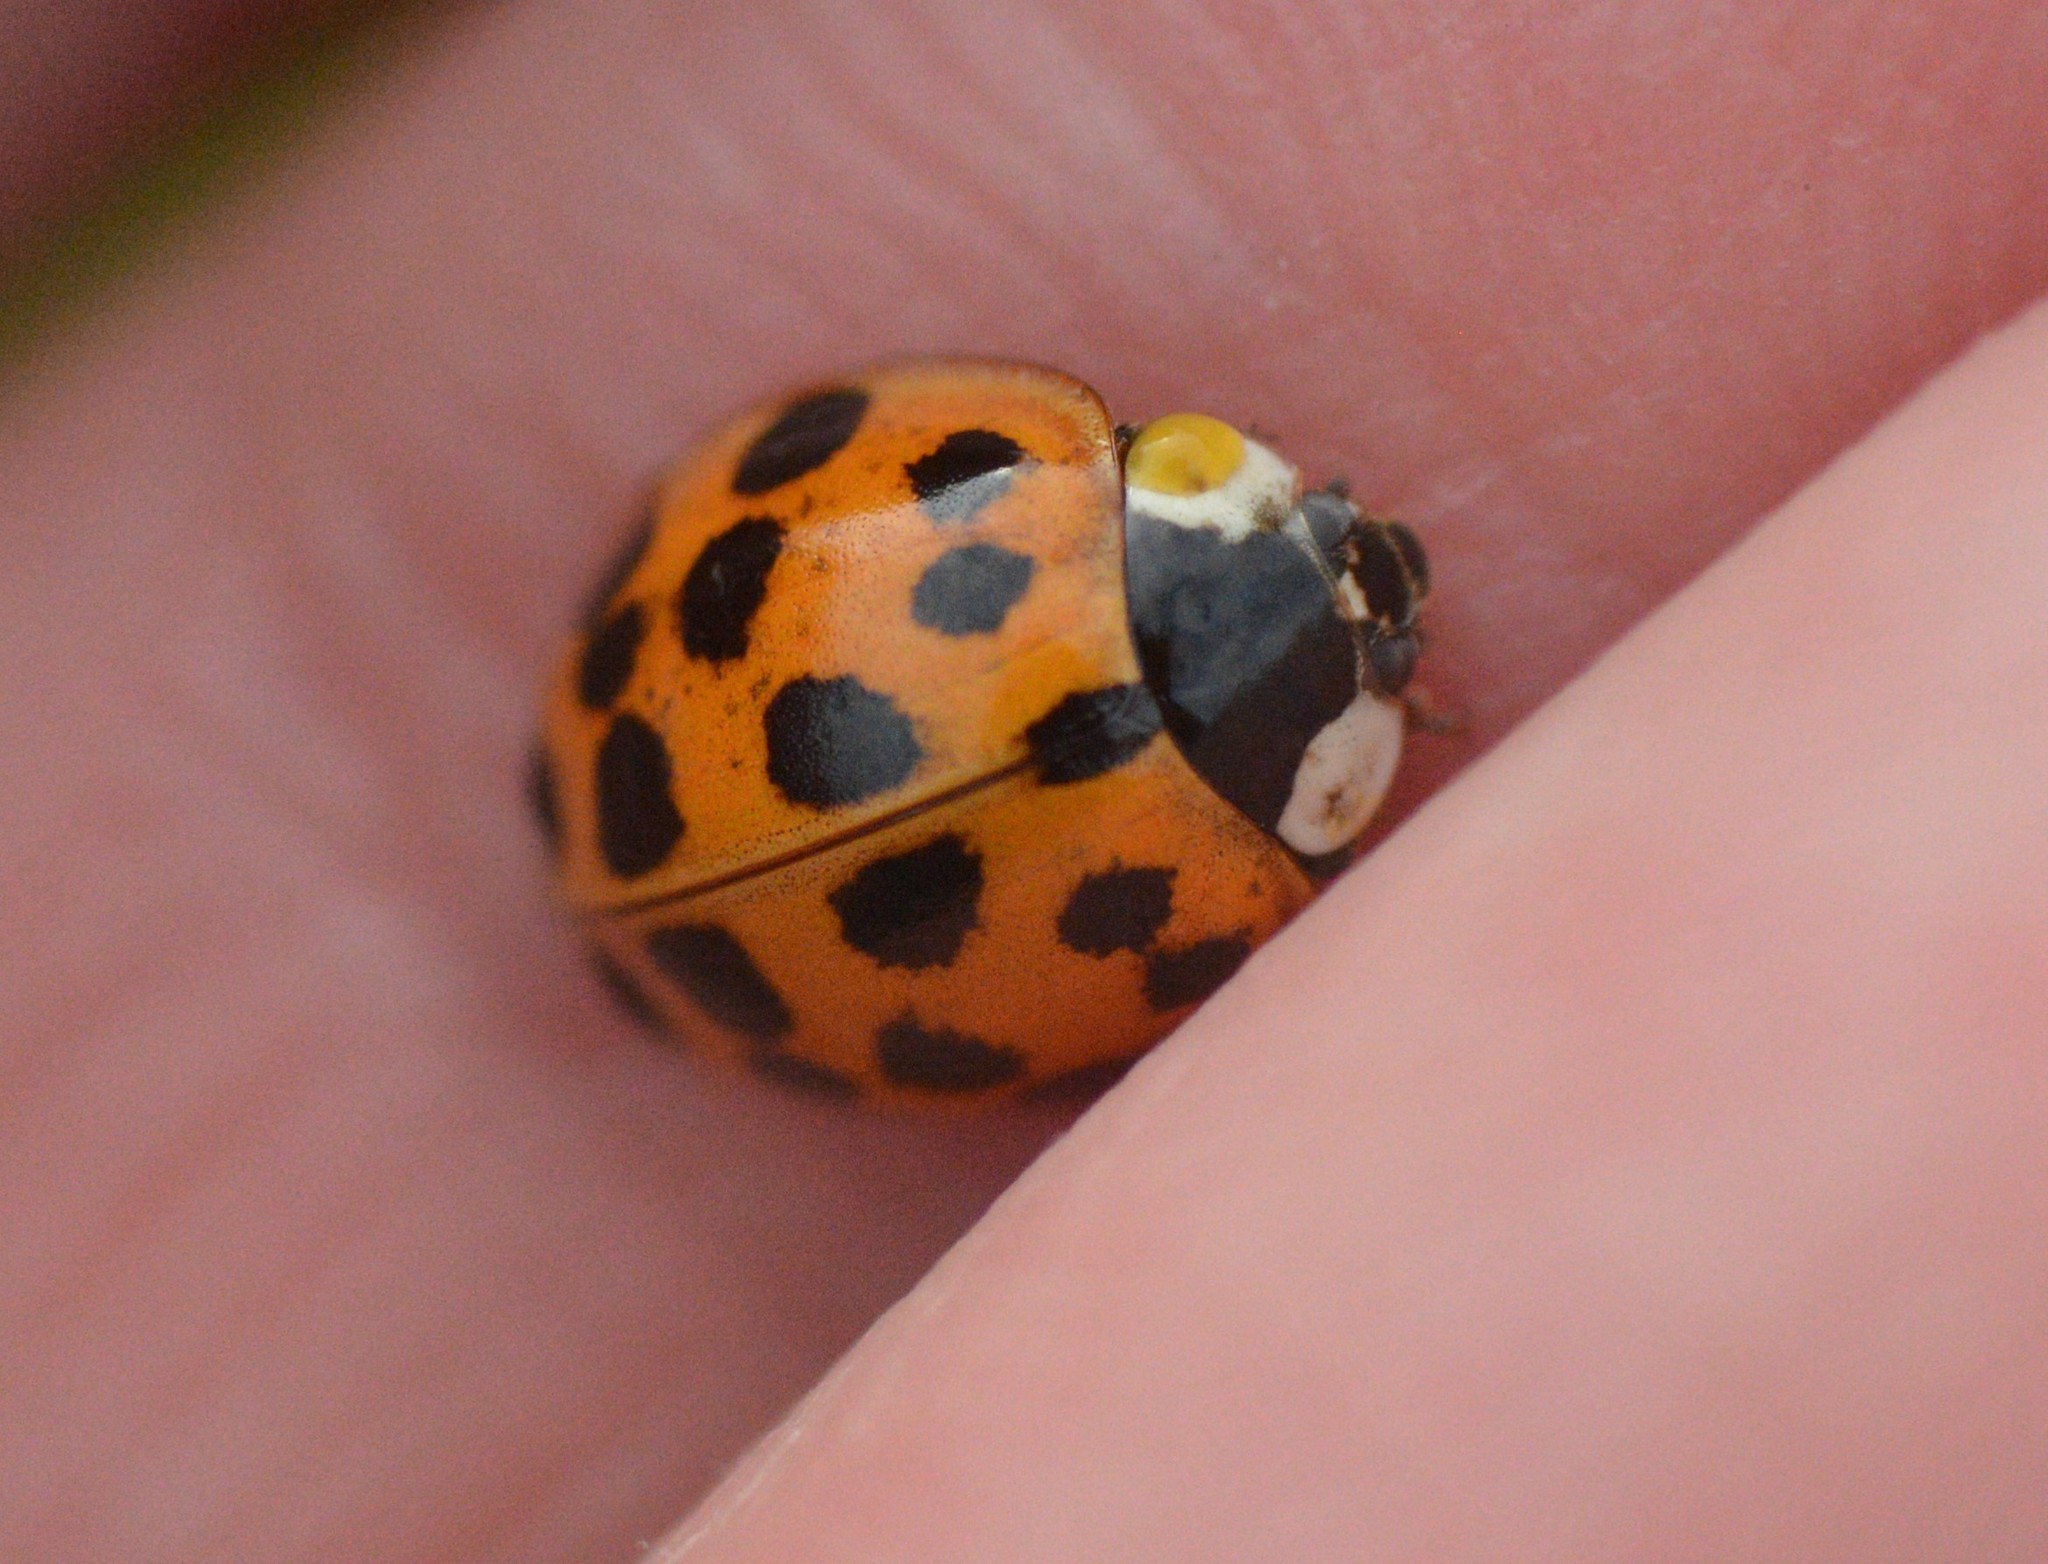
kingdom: Animalia
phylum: Arthropoda
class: Insecta
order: Coleoptera
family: Coccinellidae
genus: Harmonia
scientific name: Harmonia axyridis
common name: Harlequin ladybird
